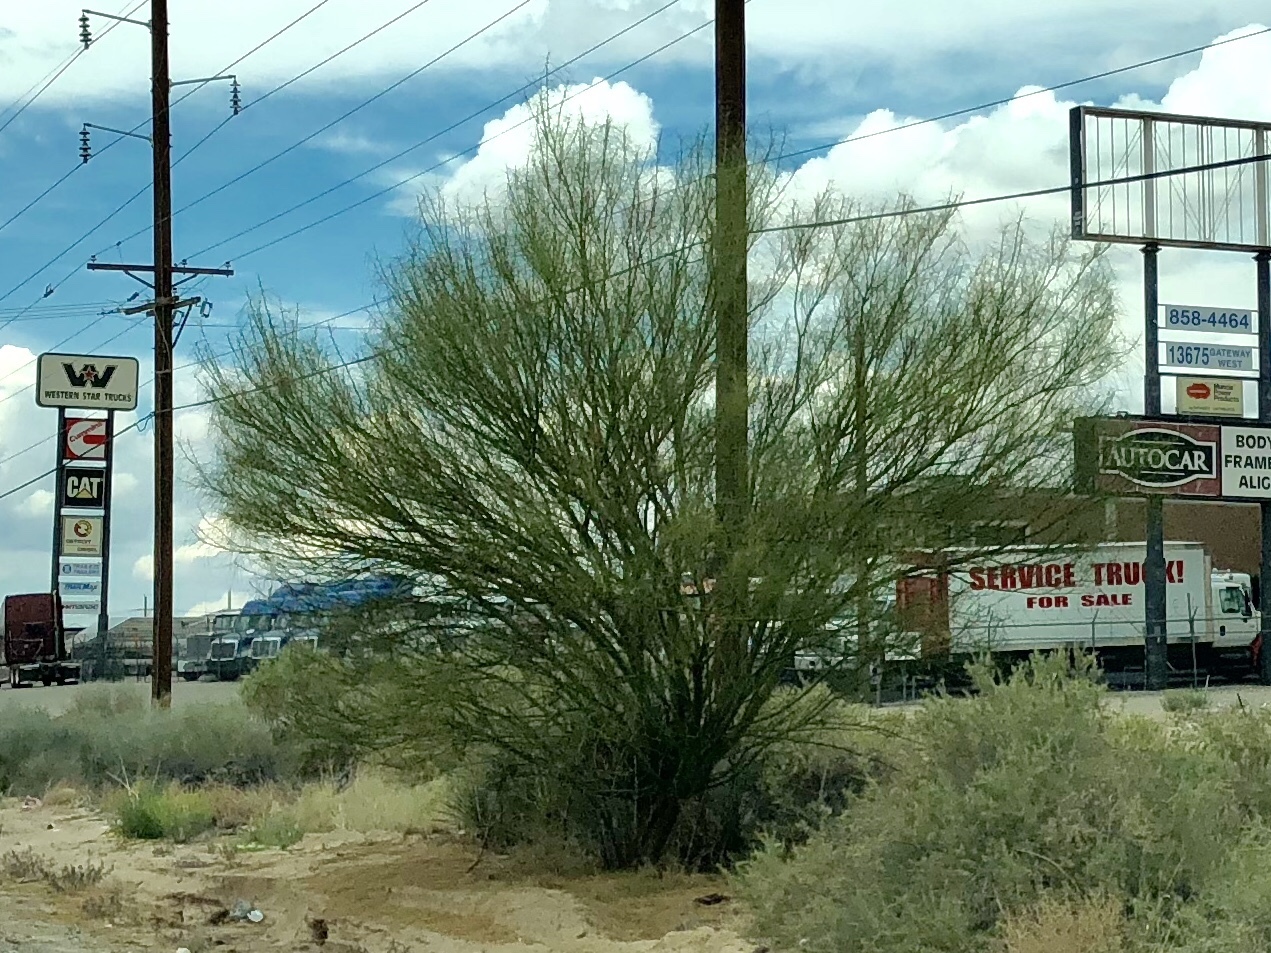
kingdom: Plantae
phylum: Tracheophyta
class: Magnoliopsida
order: Fabales
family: Fabaceae
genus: Parkinsonia
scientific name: Parkinsonia aculeata
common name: Jerusalem thorn
